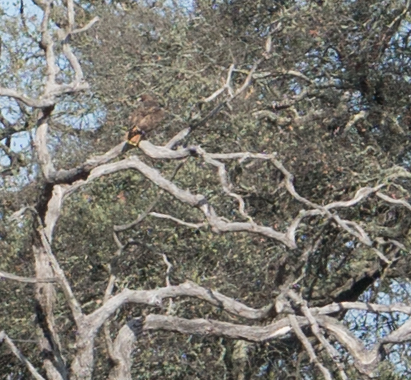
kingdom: Animalia
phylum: Chordata
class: Aves
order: Accipitriformes
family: Accipitridae
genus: Buteo
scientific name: Buteo jamaicensis
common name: Red-tailed hawk
